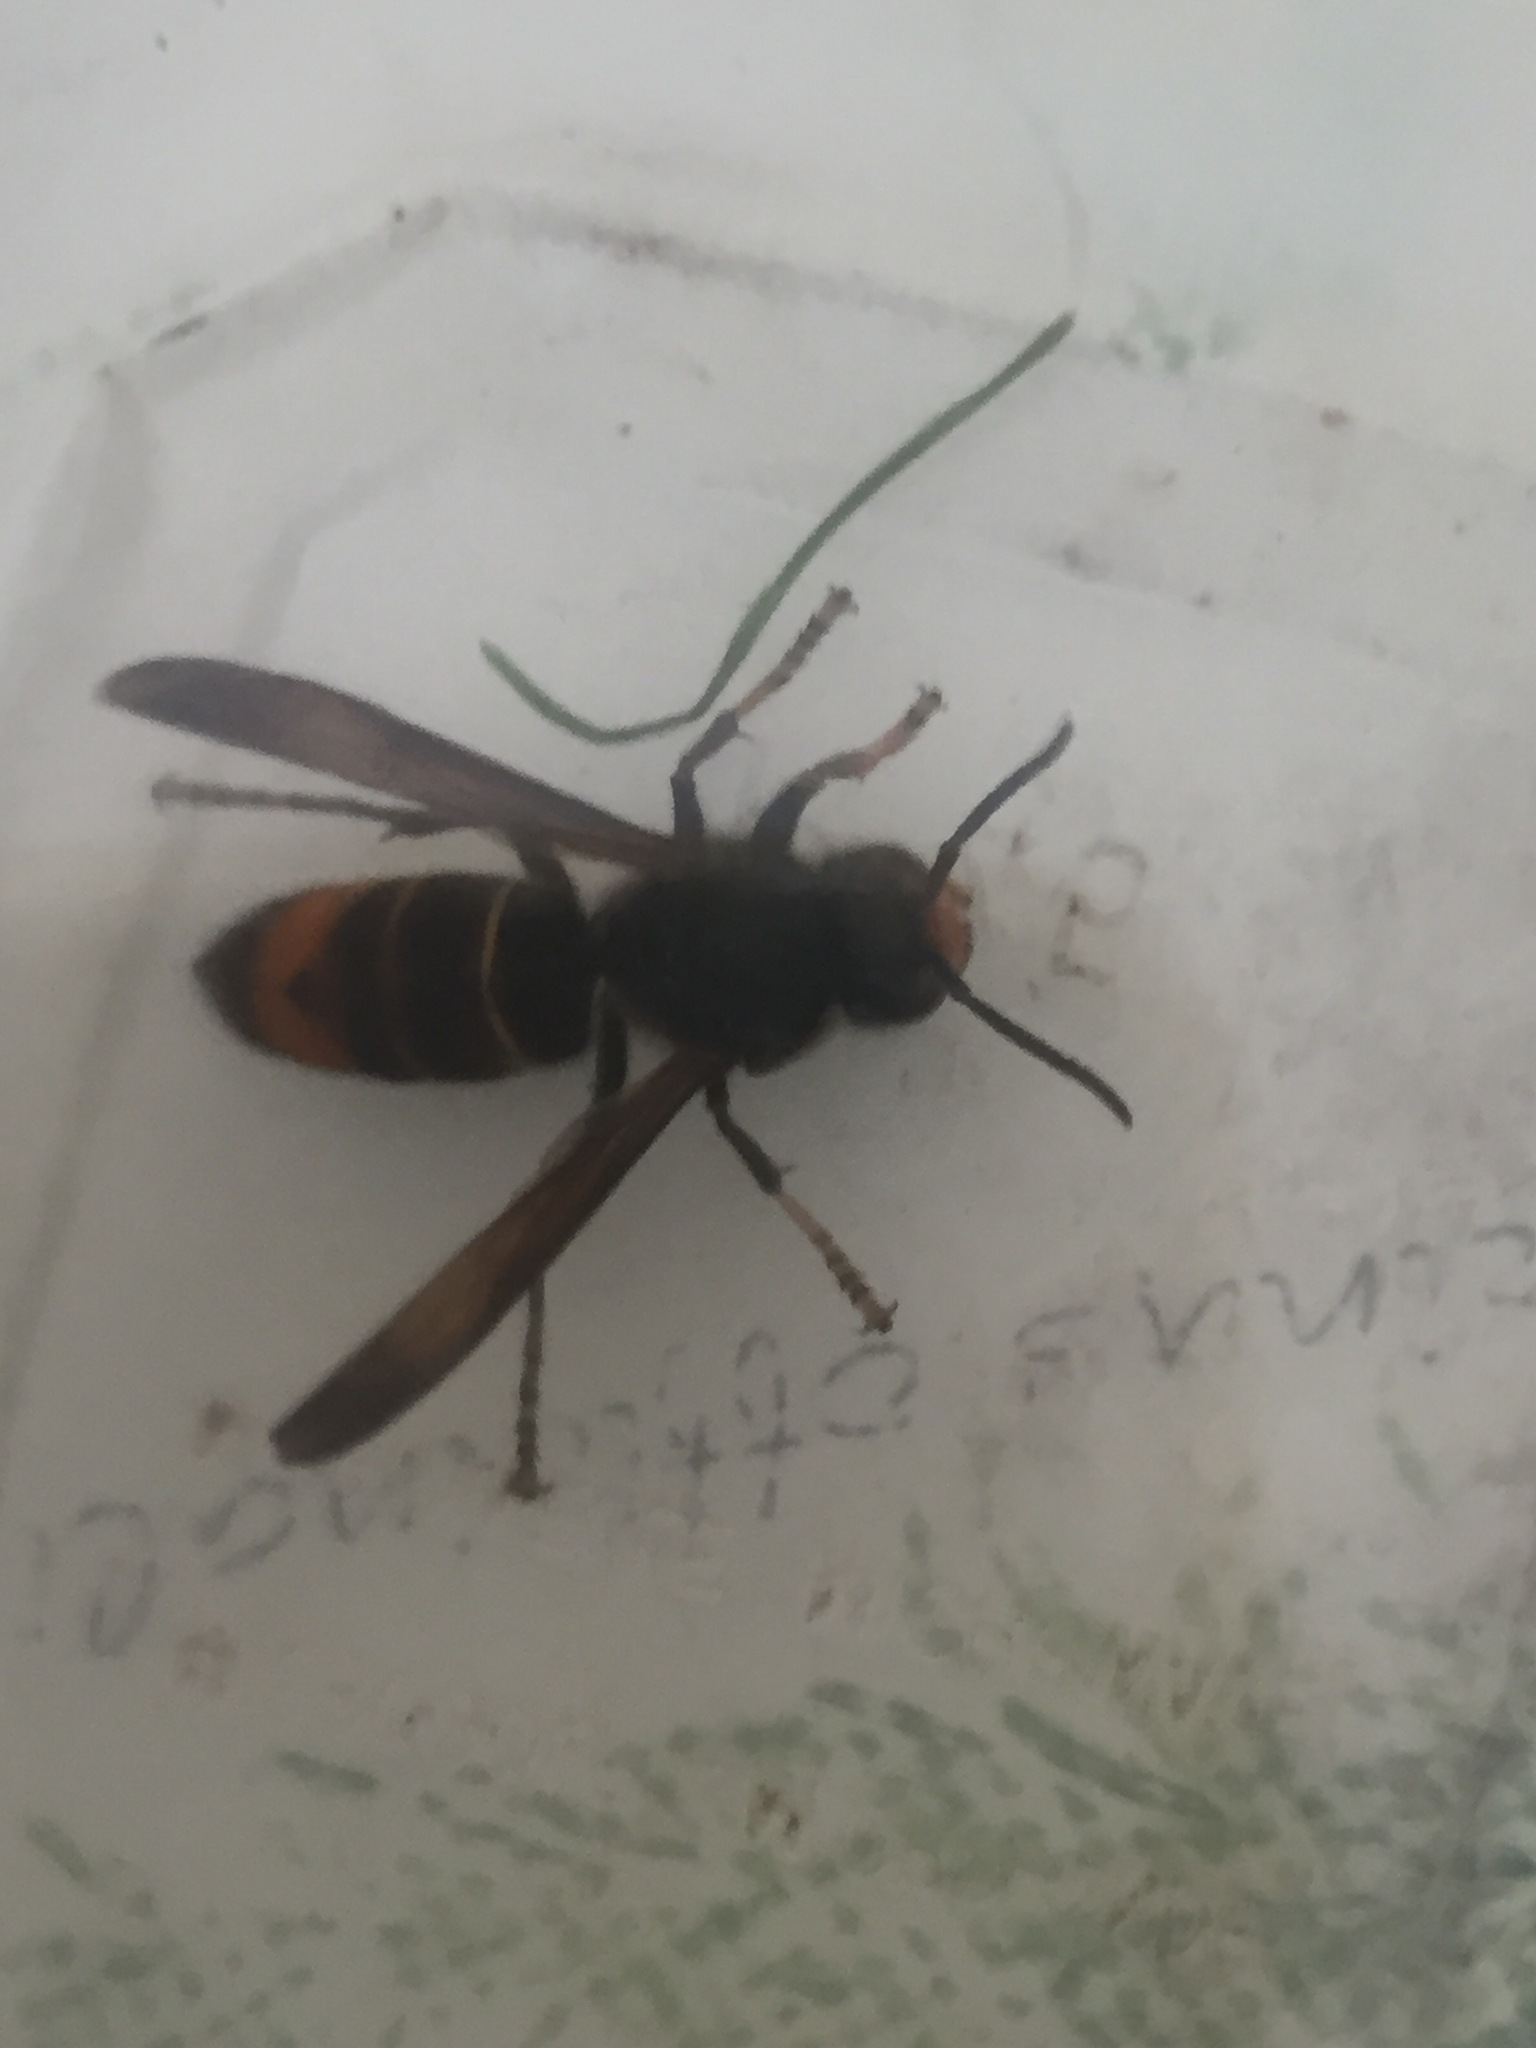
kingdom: Animalia
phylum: Arthropoda
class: Insecta
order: Hymenoptera
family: Vespidae
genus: Vespa
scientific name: Vespa velutina
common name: Asian hornet
